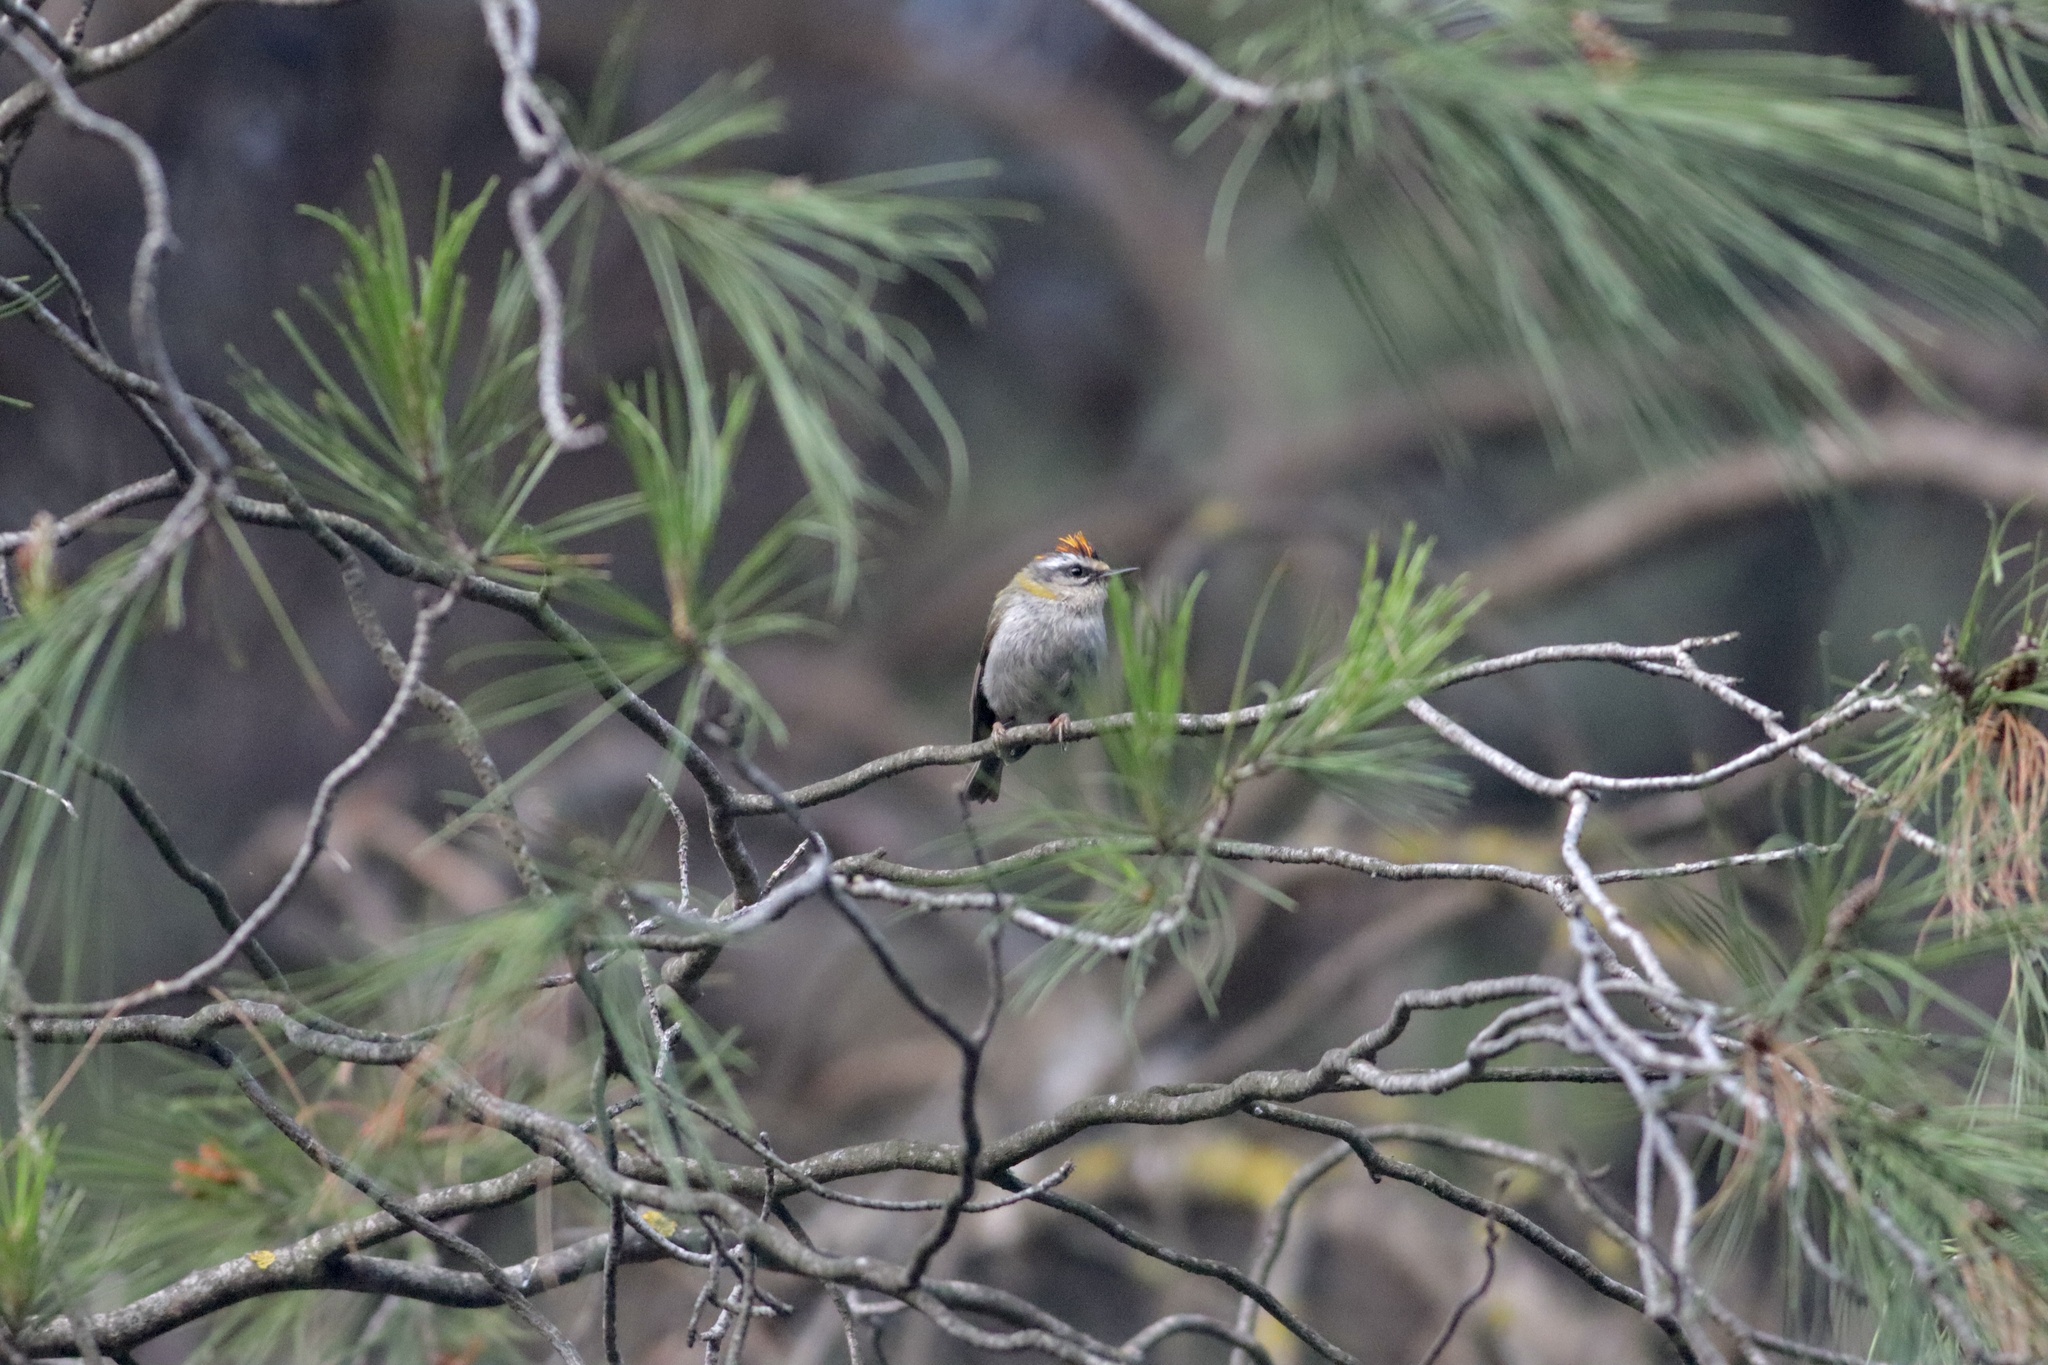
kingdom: Animalia
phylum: Chordata
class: Aves
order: Passeriformes
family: Regulidae
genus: Regulus
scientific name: Regulus ignicapilla
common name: Firecrest
